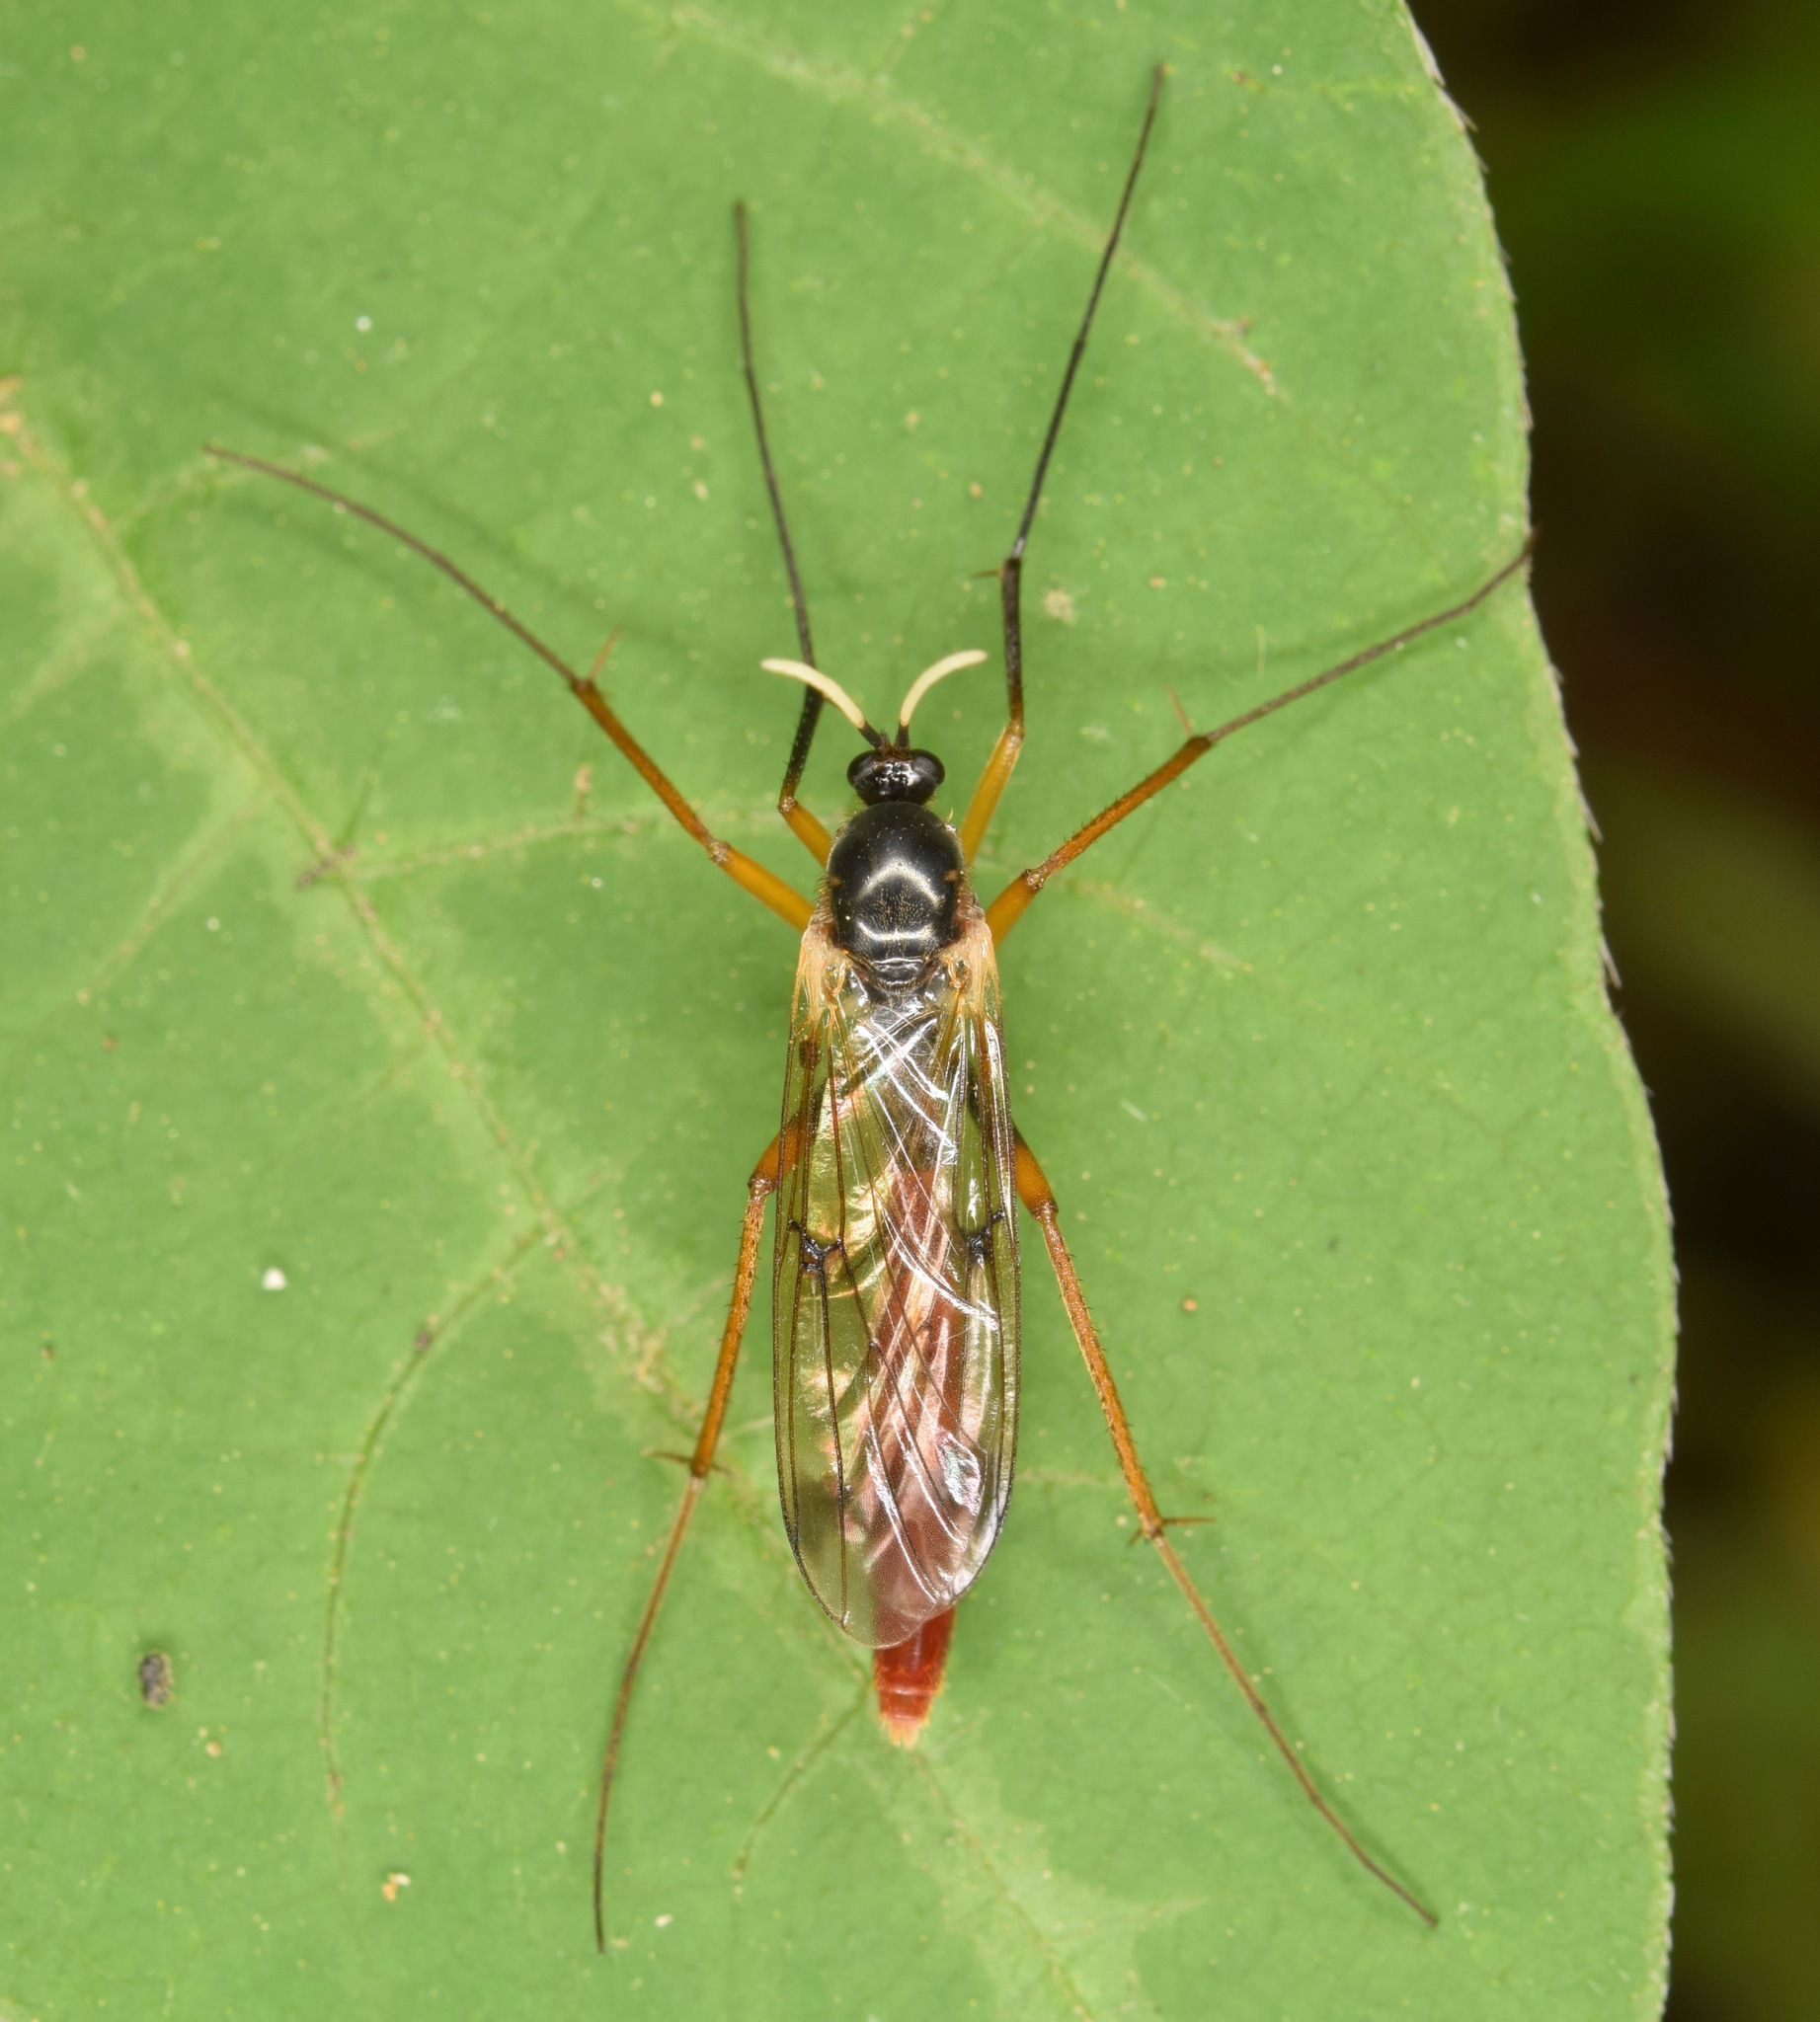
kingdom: Animalia
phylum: Arthropoda
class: Insecta
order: Diptera
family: Mycetophilidae
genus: Leptomorphus
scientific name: Leptomorphus nebulosus
